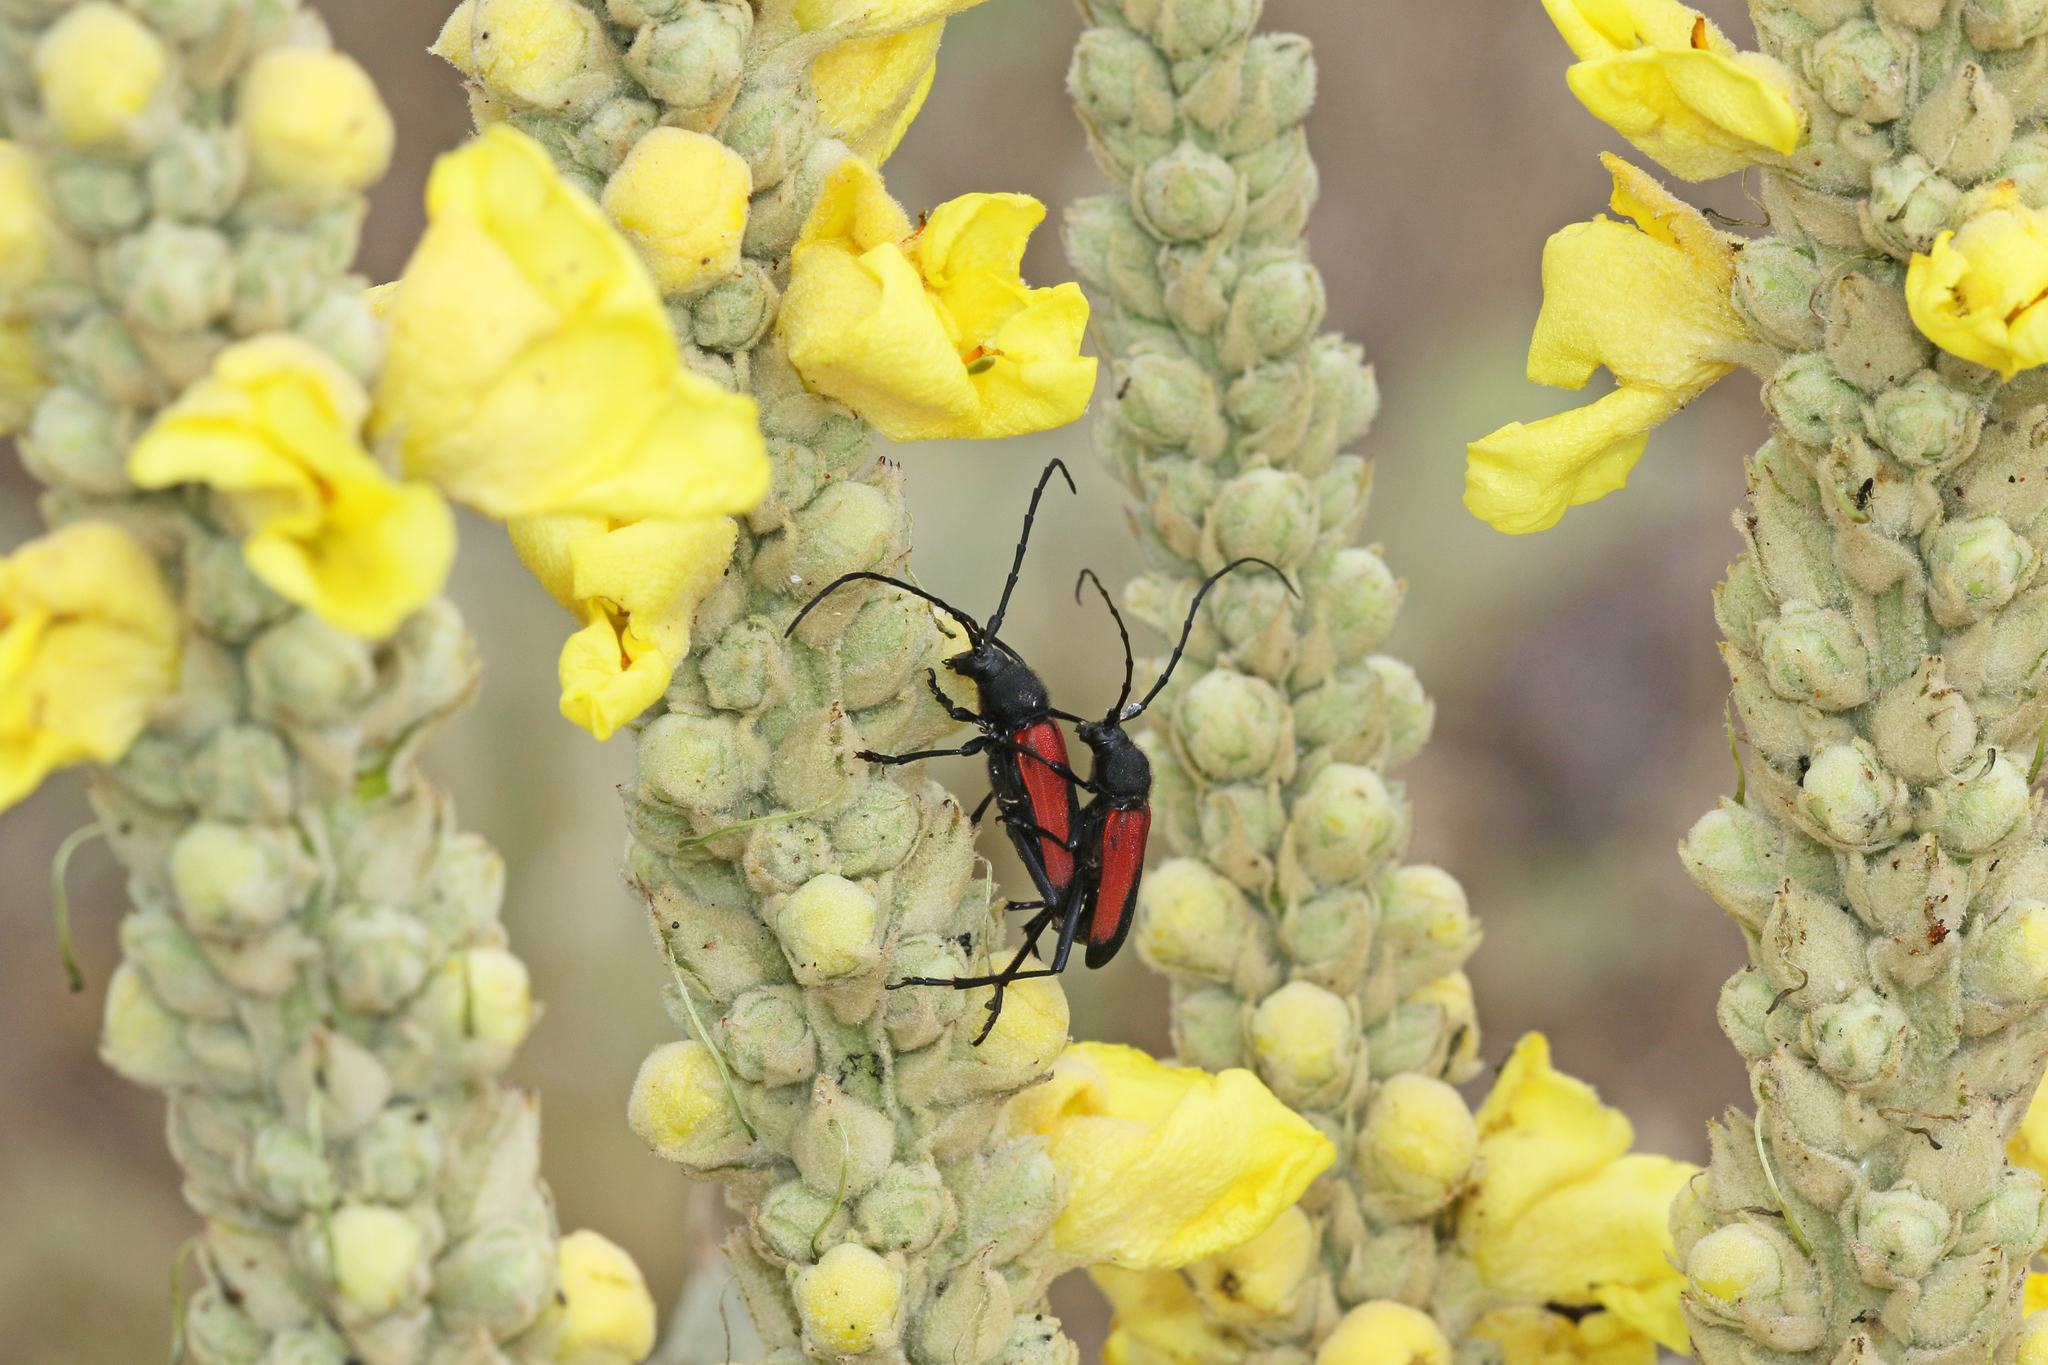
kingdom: Animalia
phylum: Arthropoda
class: Insecta
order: Coleoptera
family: Cerambycidae
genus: Purpuricenus
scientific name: Purpuricenus budensis
